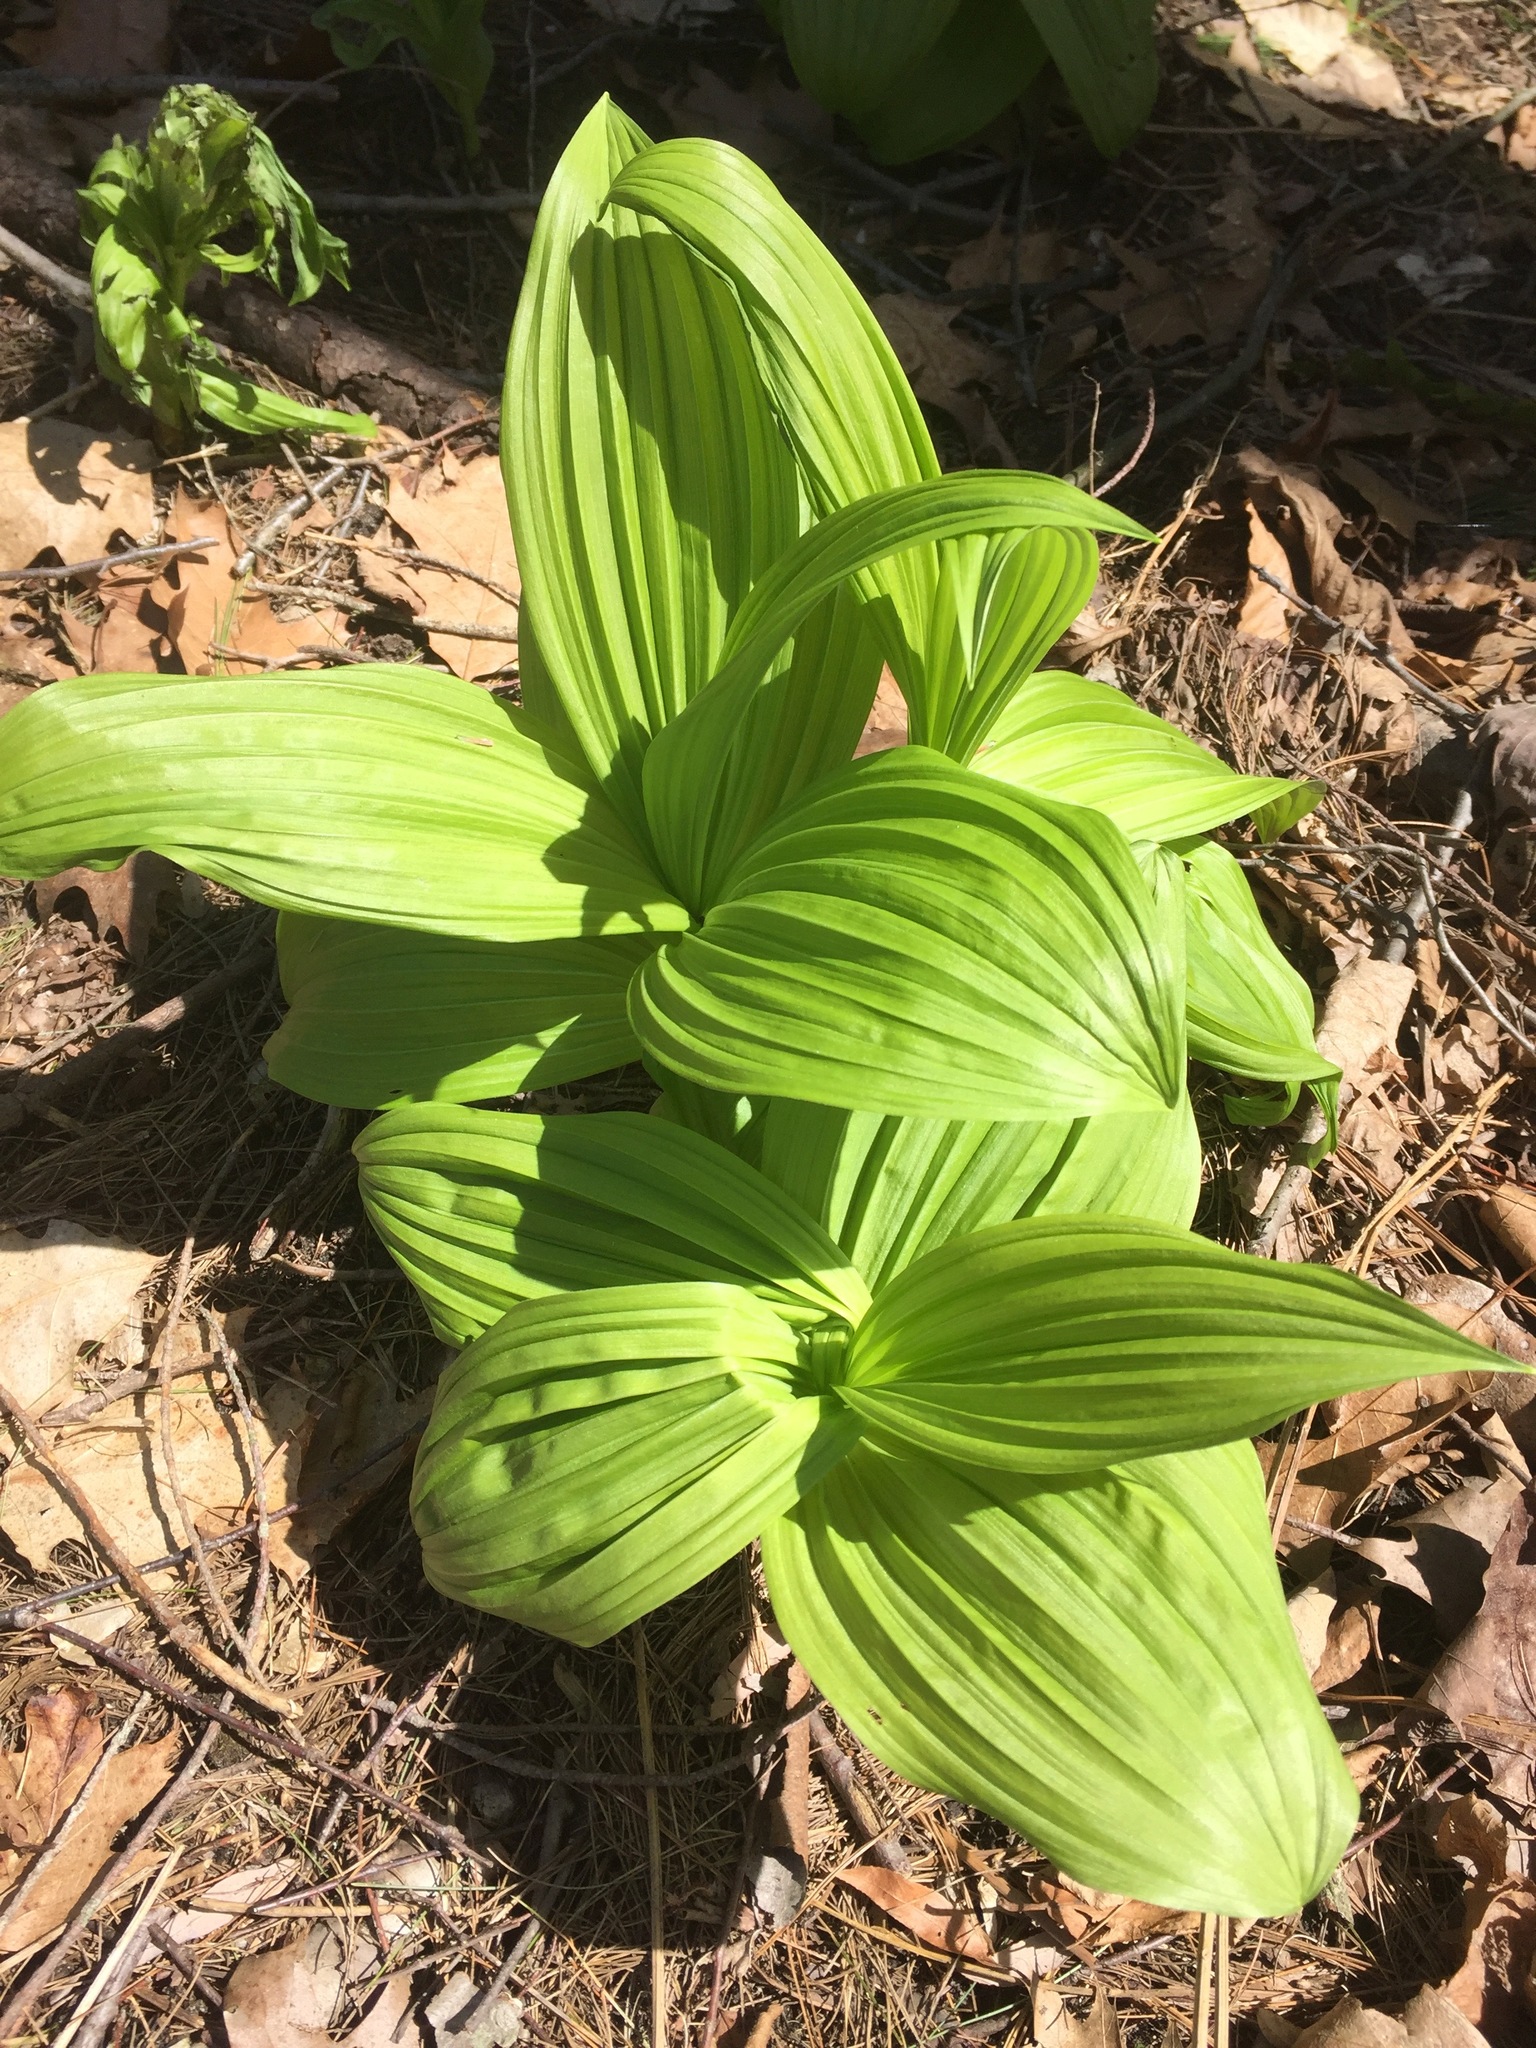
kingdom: Plantae
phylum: Tracheophyta
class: Liliopsida
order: Liliales
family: Melanthiaceae
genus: Veratrum
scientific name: Veratrum viride
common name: American false hellebore
